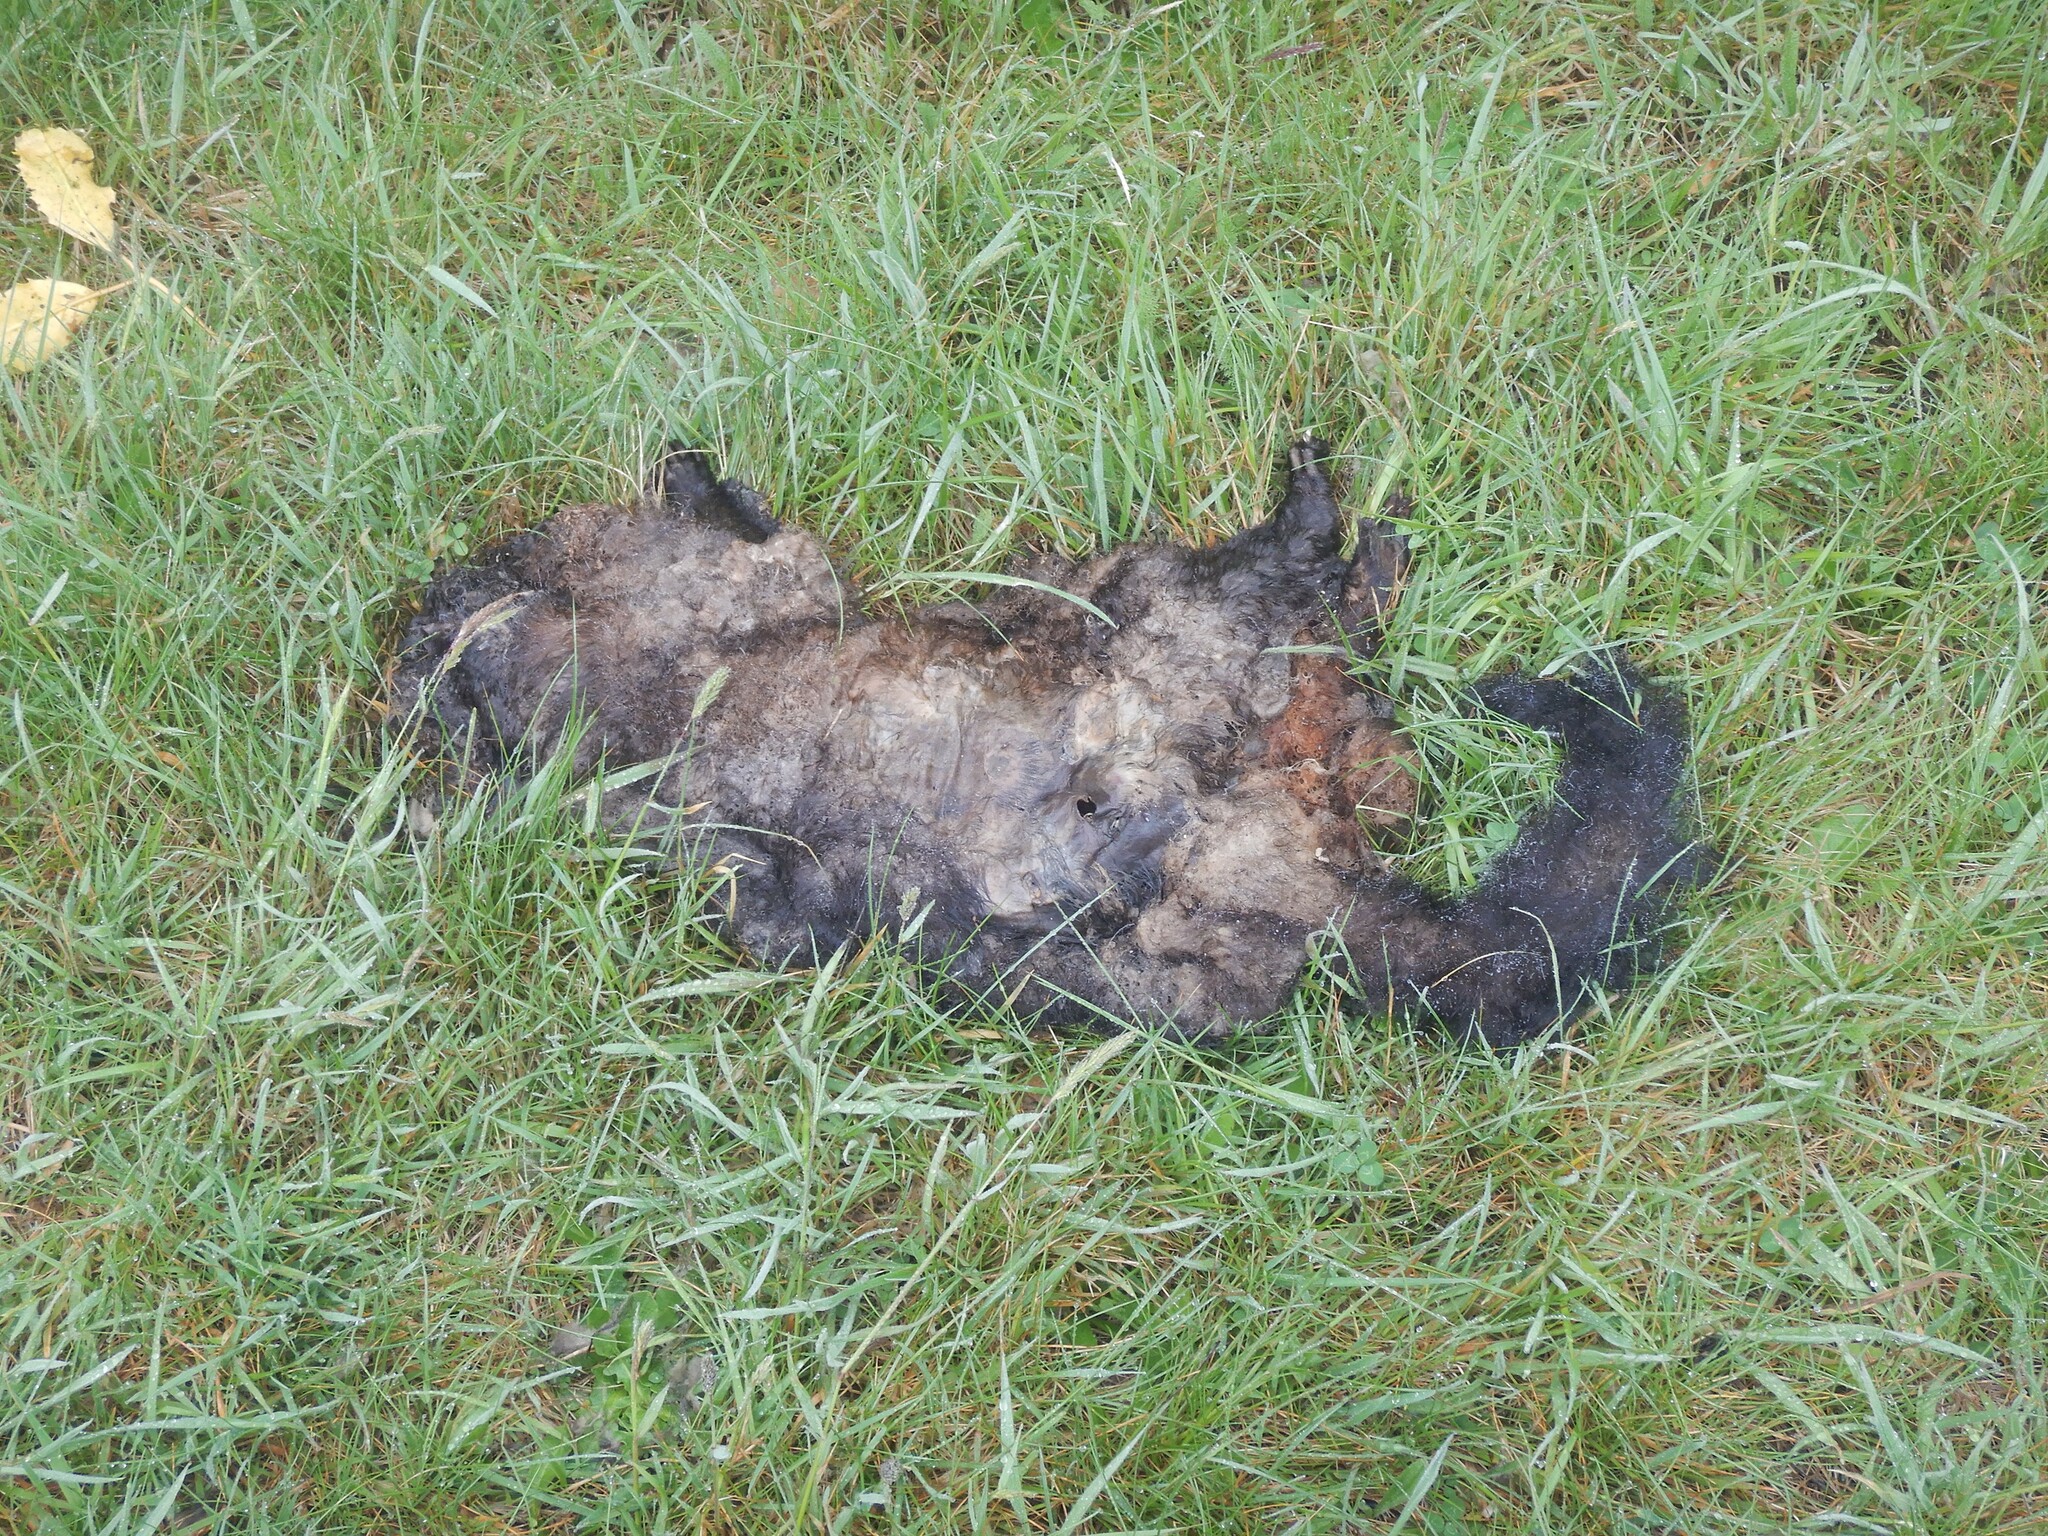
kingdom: Animalia
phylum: Chordata
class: Mammalia
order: Diprotodontia
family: Phalangeridae
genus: Trichosurus
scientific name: Trichosurus vulpecula
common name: Common brushtail
